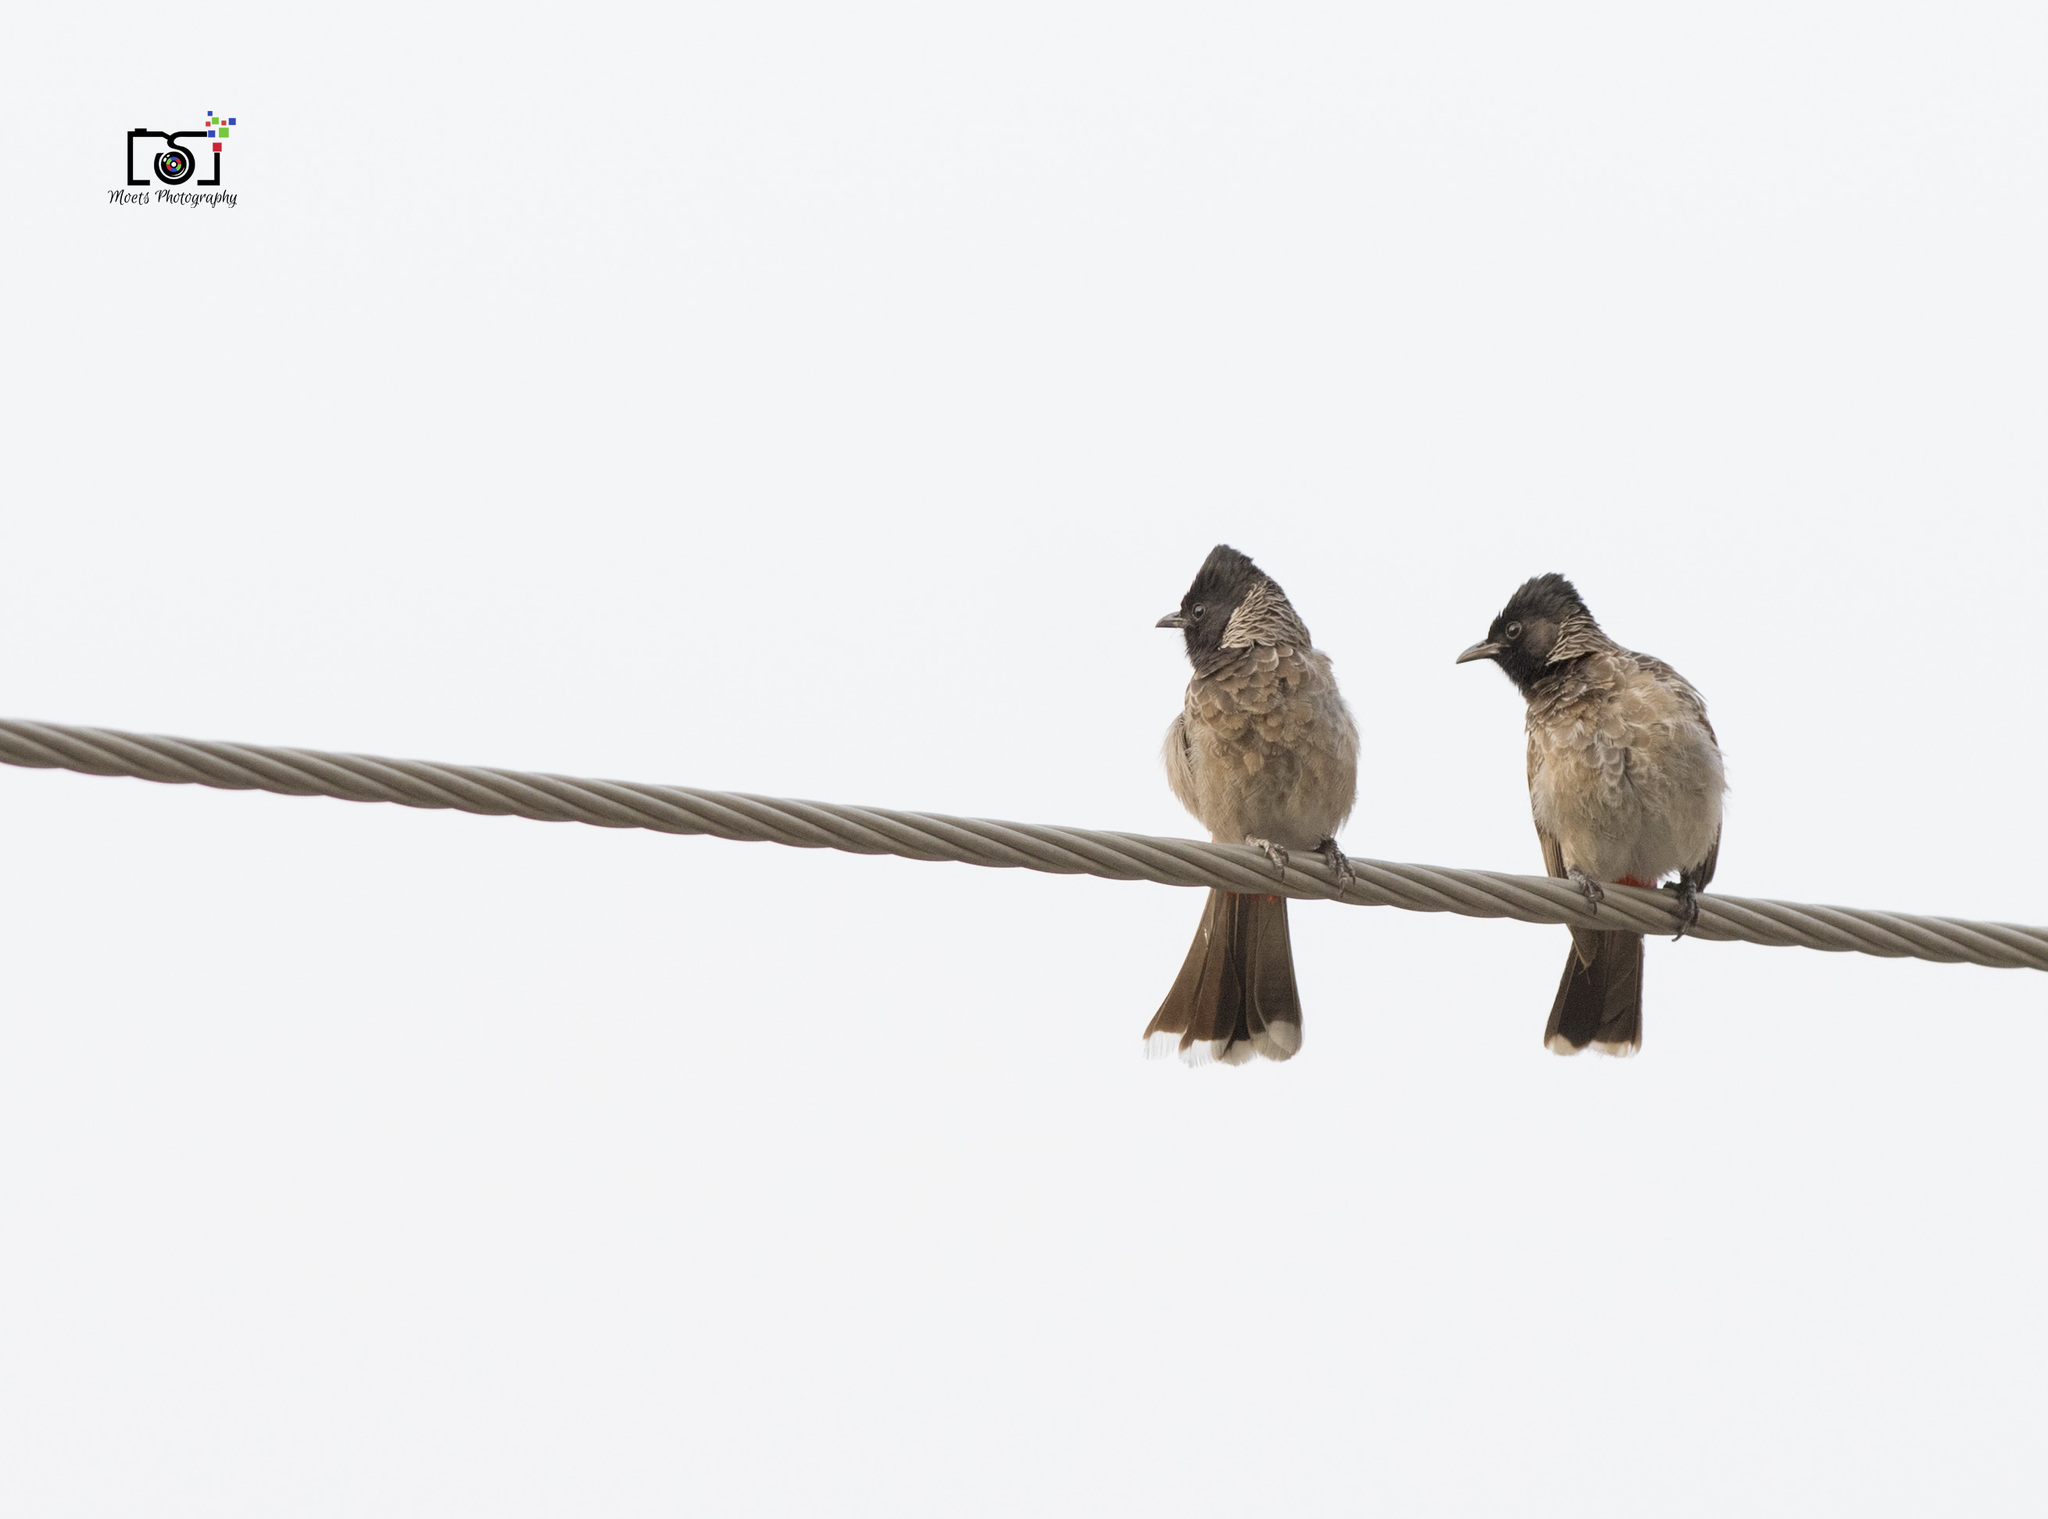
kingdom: Animalia
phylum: Chordata
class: Aves
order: Passeriformes
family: Pycnonotidae
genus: Pycnonotus
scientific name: Pycnonotus cafer
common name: Red-vented bulbul
